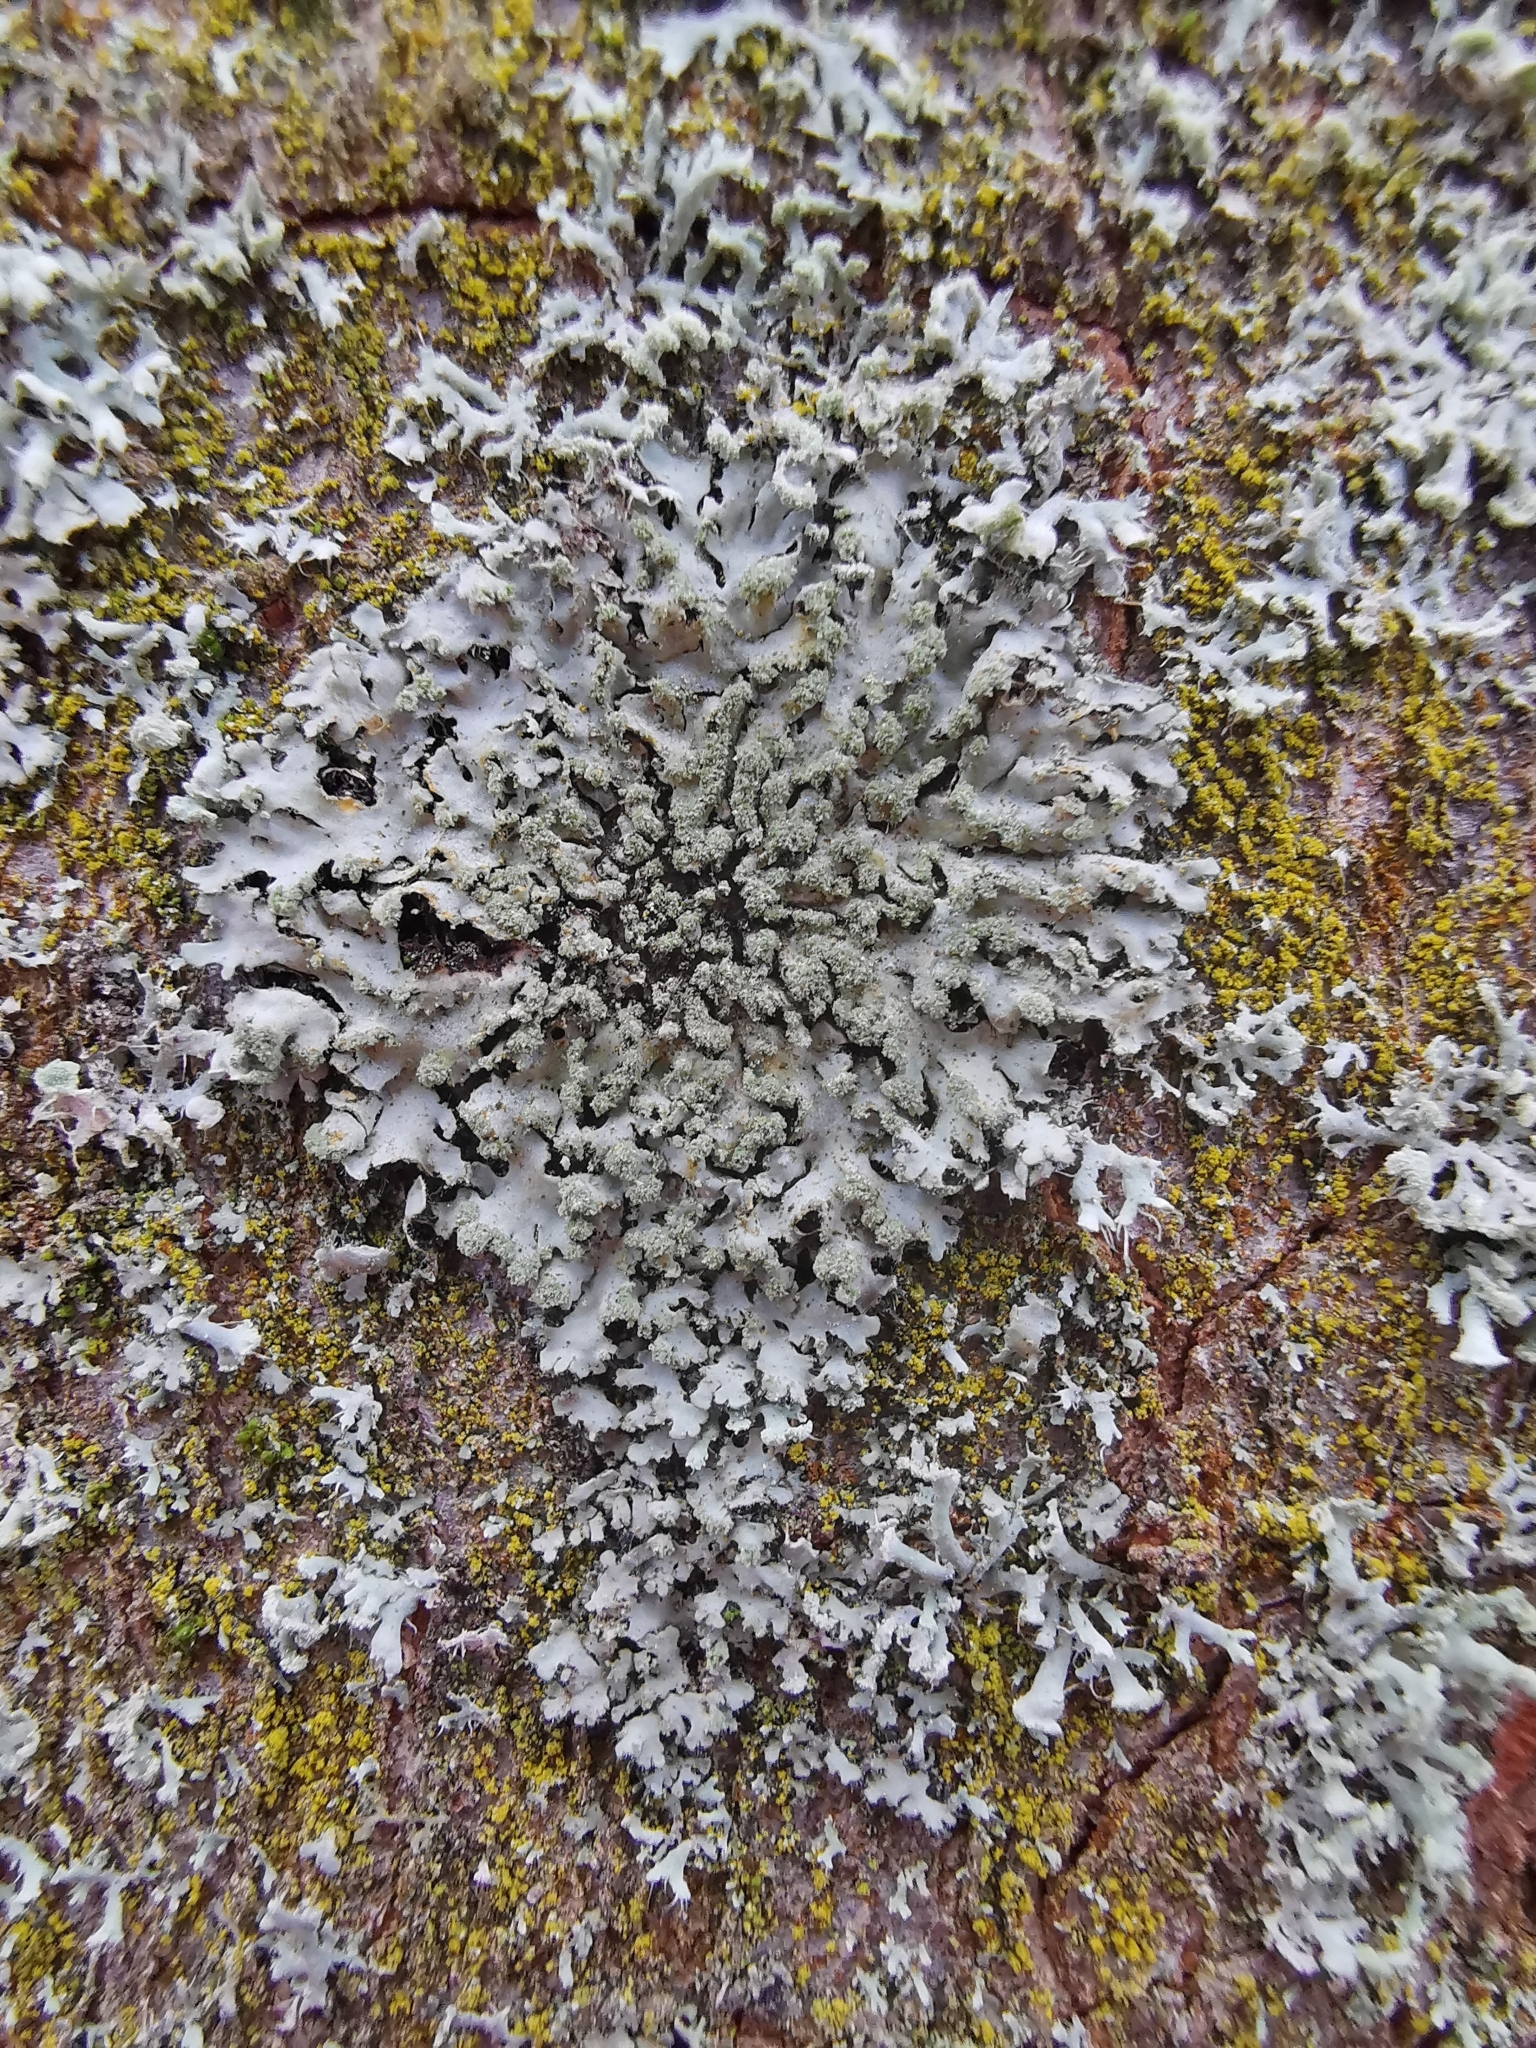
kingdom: Fungi
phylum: Ascomycota
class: Lecanoromycetes
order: Caliciales
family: Physciaceae
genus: Phaeophyscia
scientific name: Phaeophyscia orbicularis
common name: Mealy shadow lichen
